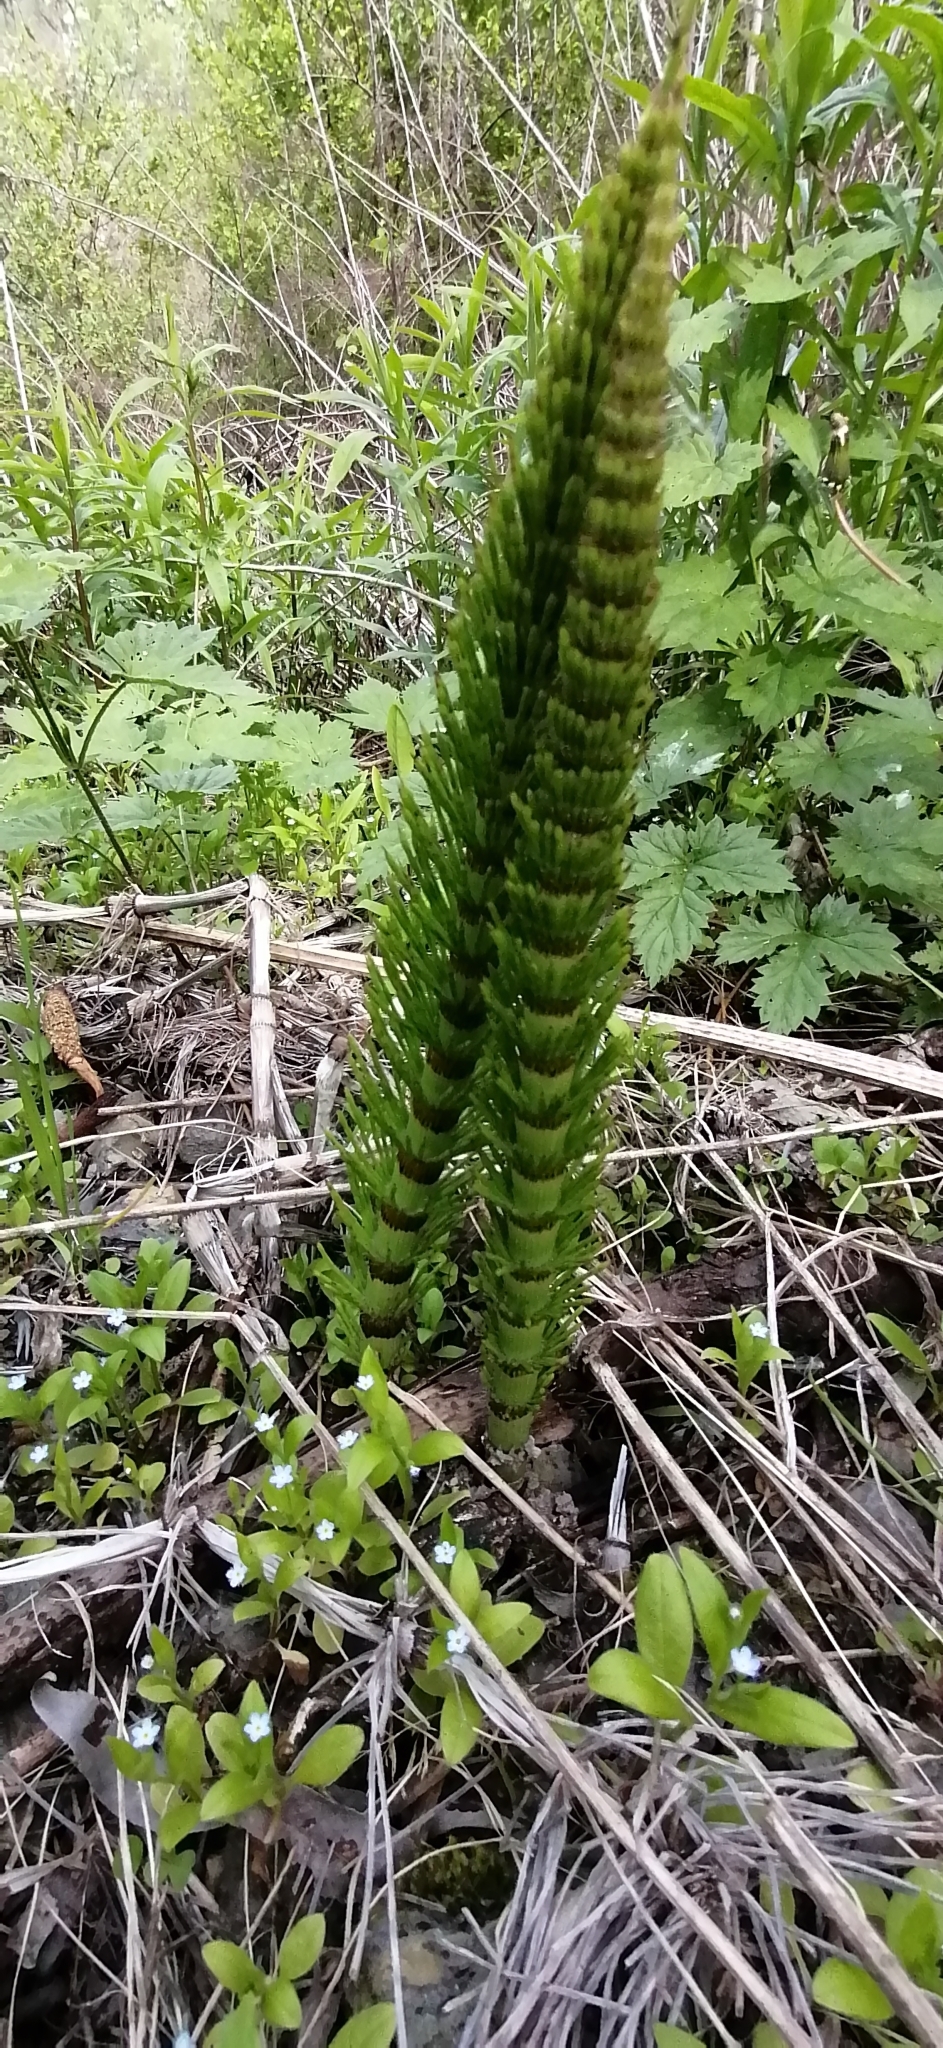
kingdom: Plantae
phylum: Tracheophyta
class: Polypodiopsida
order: Equisetales
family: Equisetaceae
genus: Equisetum
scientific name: Equisetum telmateia
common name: Great horsetail
